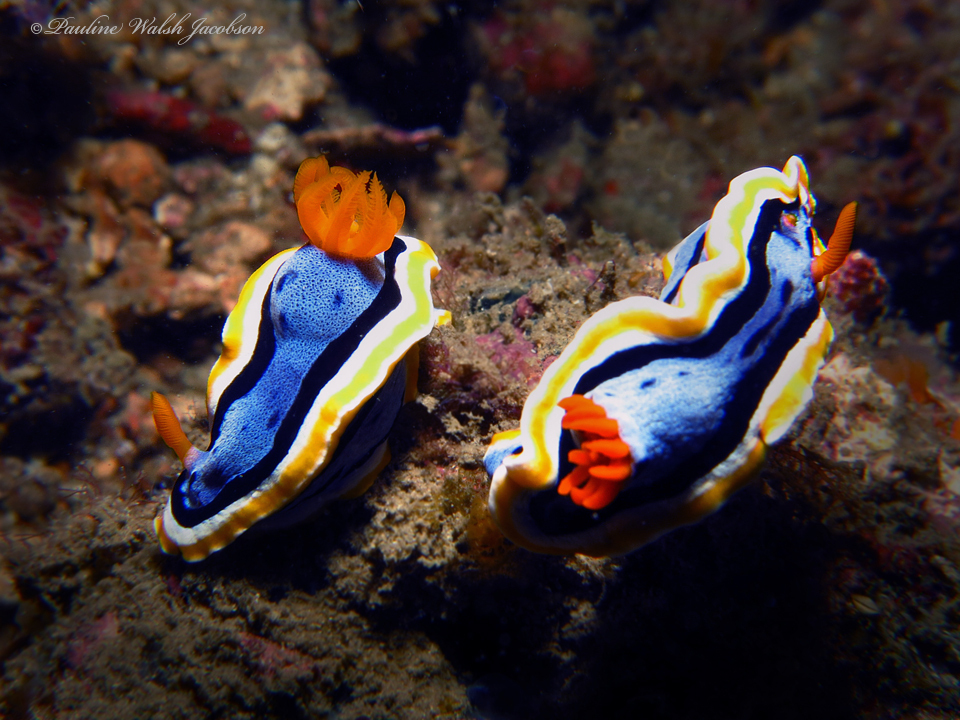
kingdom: Animalia
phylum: Mollusca
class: Gastropoda
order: Nudibranchia
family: Chromodorididae
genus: Chromodoris
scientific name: Chromodoris annae
